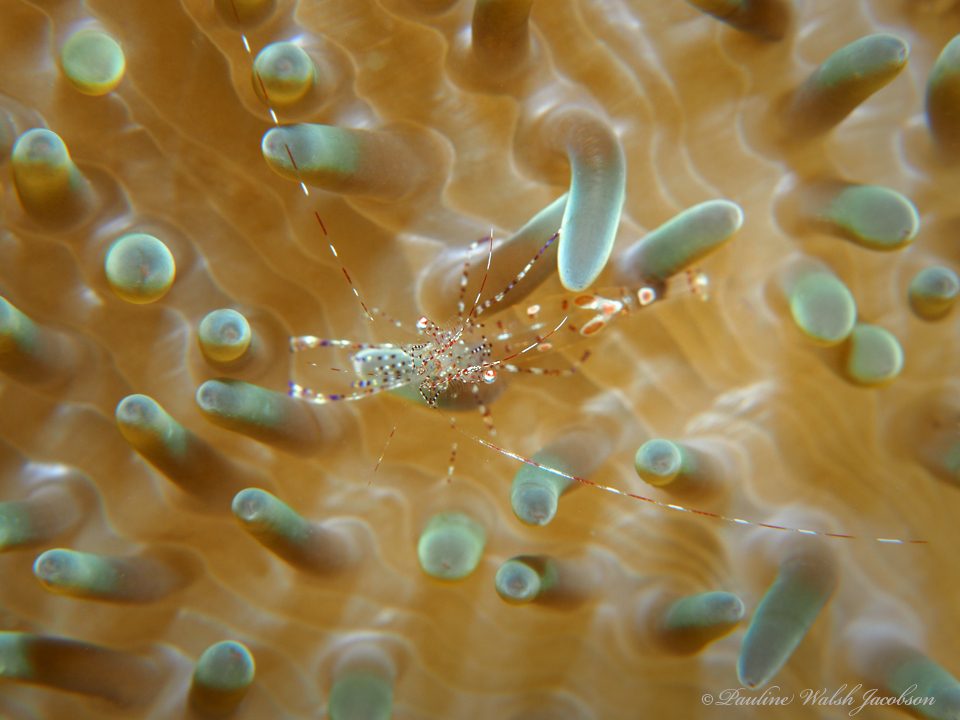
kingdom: Animalia
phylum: Arthropoda
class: Malacostraca
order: Decapoda
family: Palaemonidae
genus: Periclimenes
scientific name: Periclimenes yucatanicus
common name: Spotted cleaning shrimp
